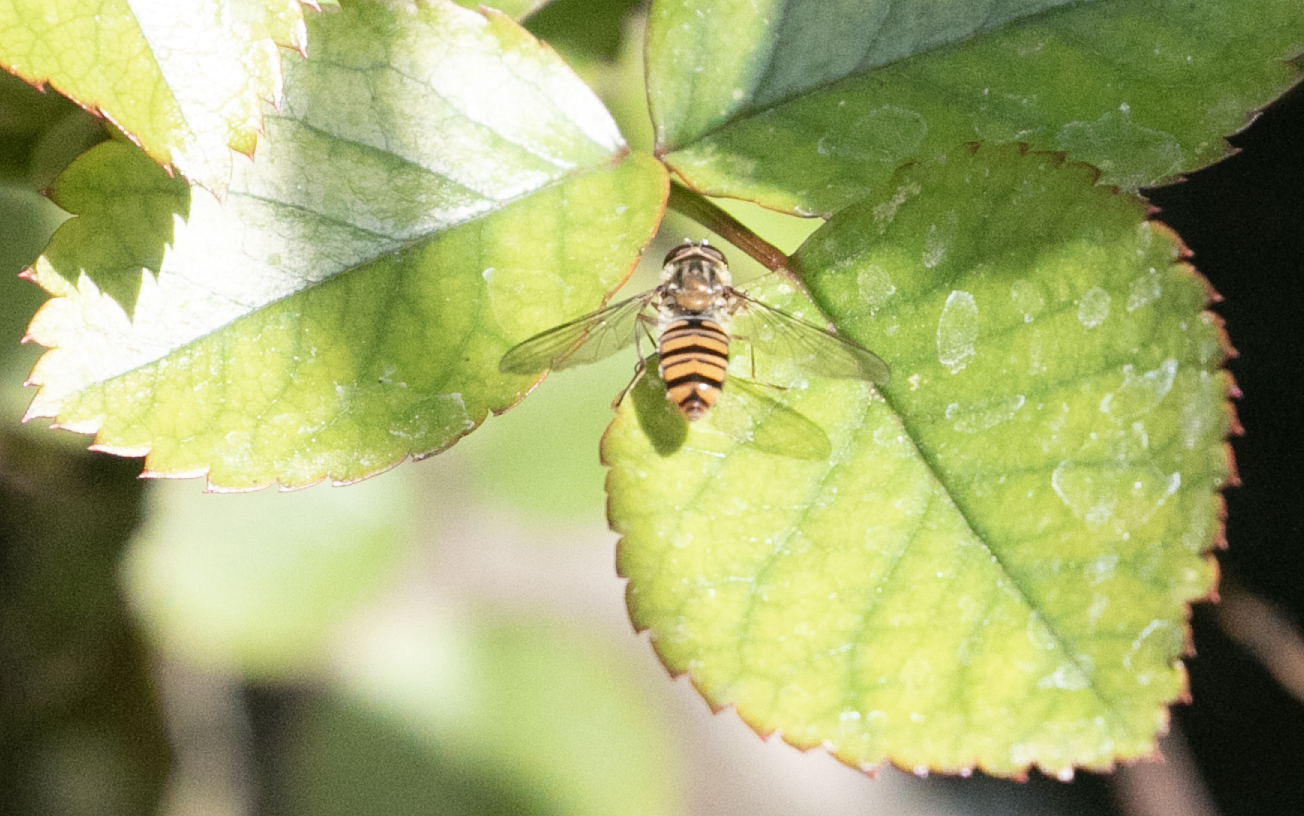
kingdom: Animalia
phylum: Arthropoda
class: Insecta
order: Diptera
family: Syrphidae
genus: Episyrphus
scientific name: Episyrphus balteatus
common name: Marmalade hoverfly
